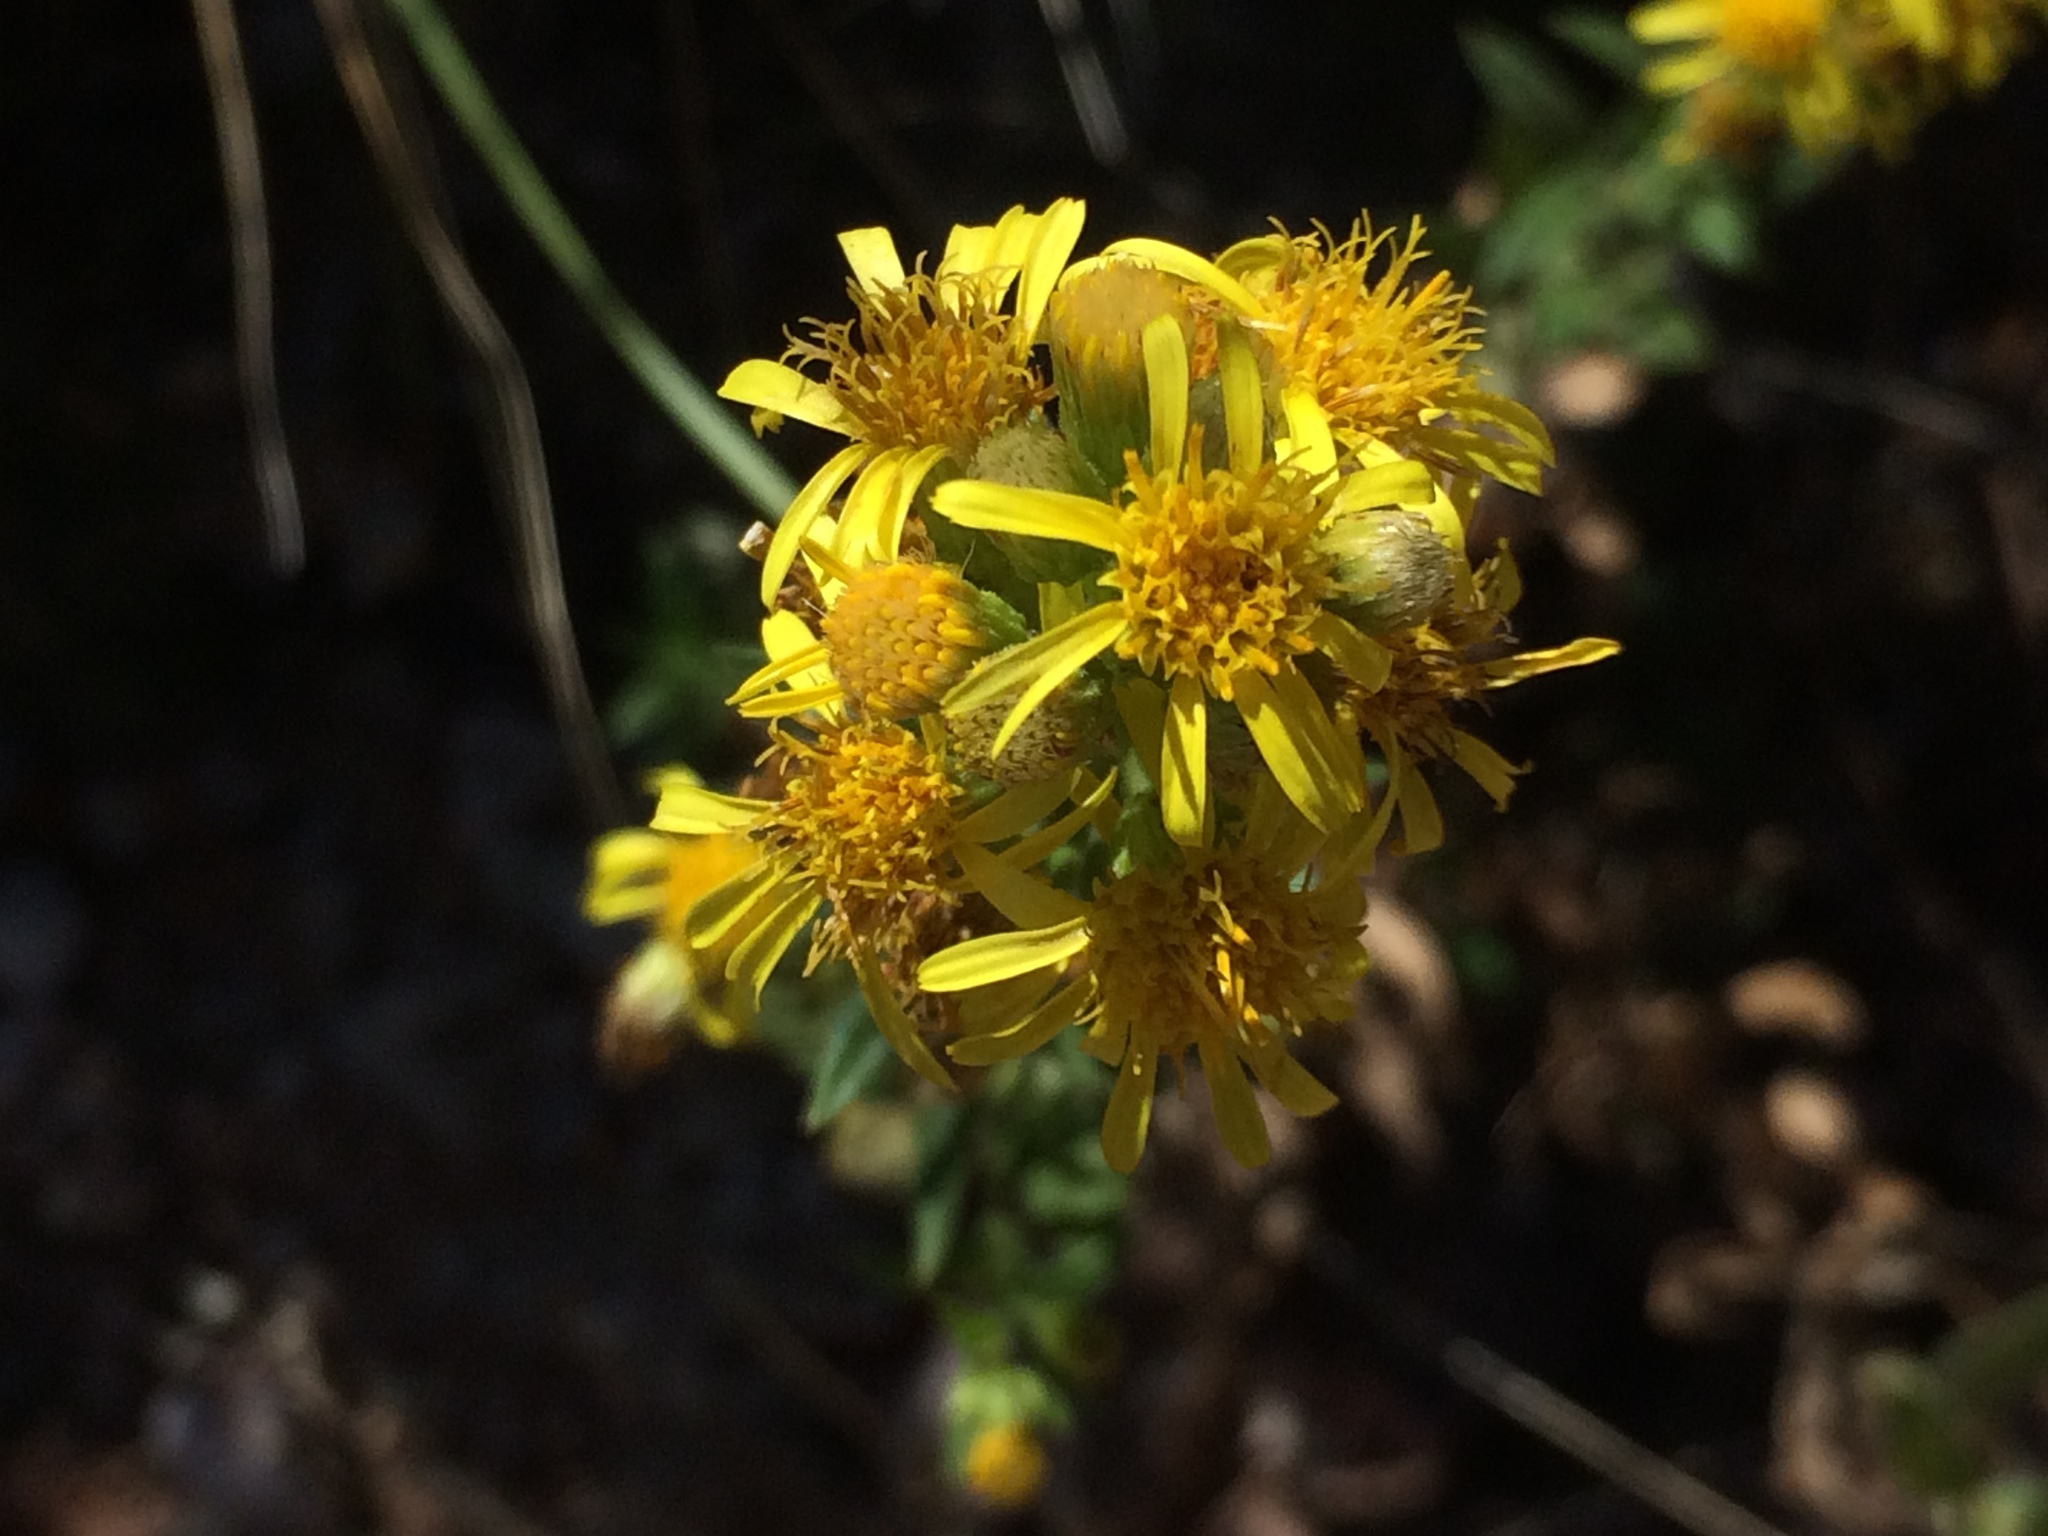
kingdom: Plantae
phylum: Tracheophyta
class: Magnoliopsida
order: Asterales
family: Asteraceae
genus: Dittrichia
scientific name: Dittrichia viscosa
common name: Woody fleabane
